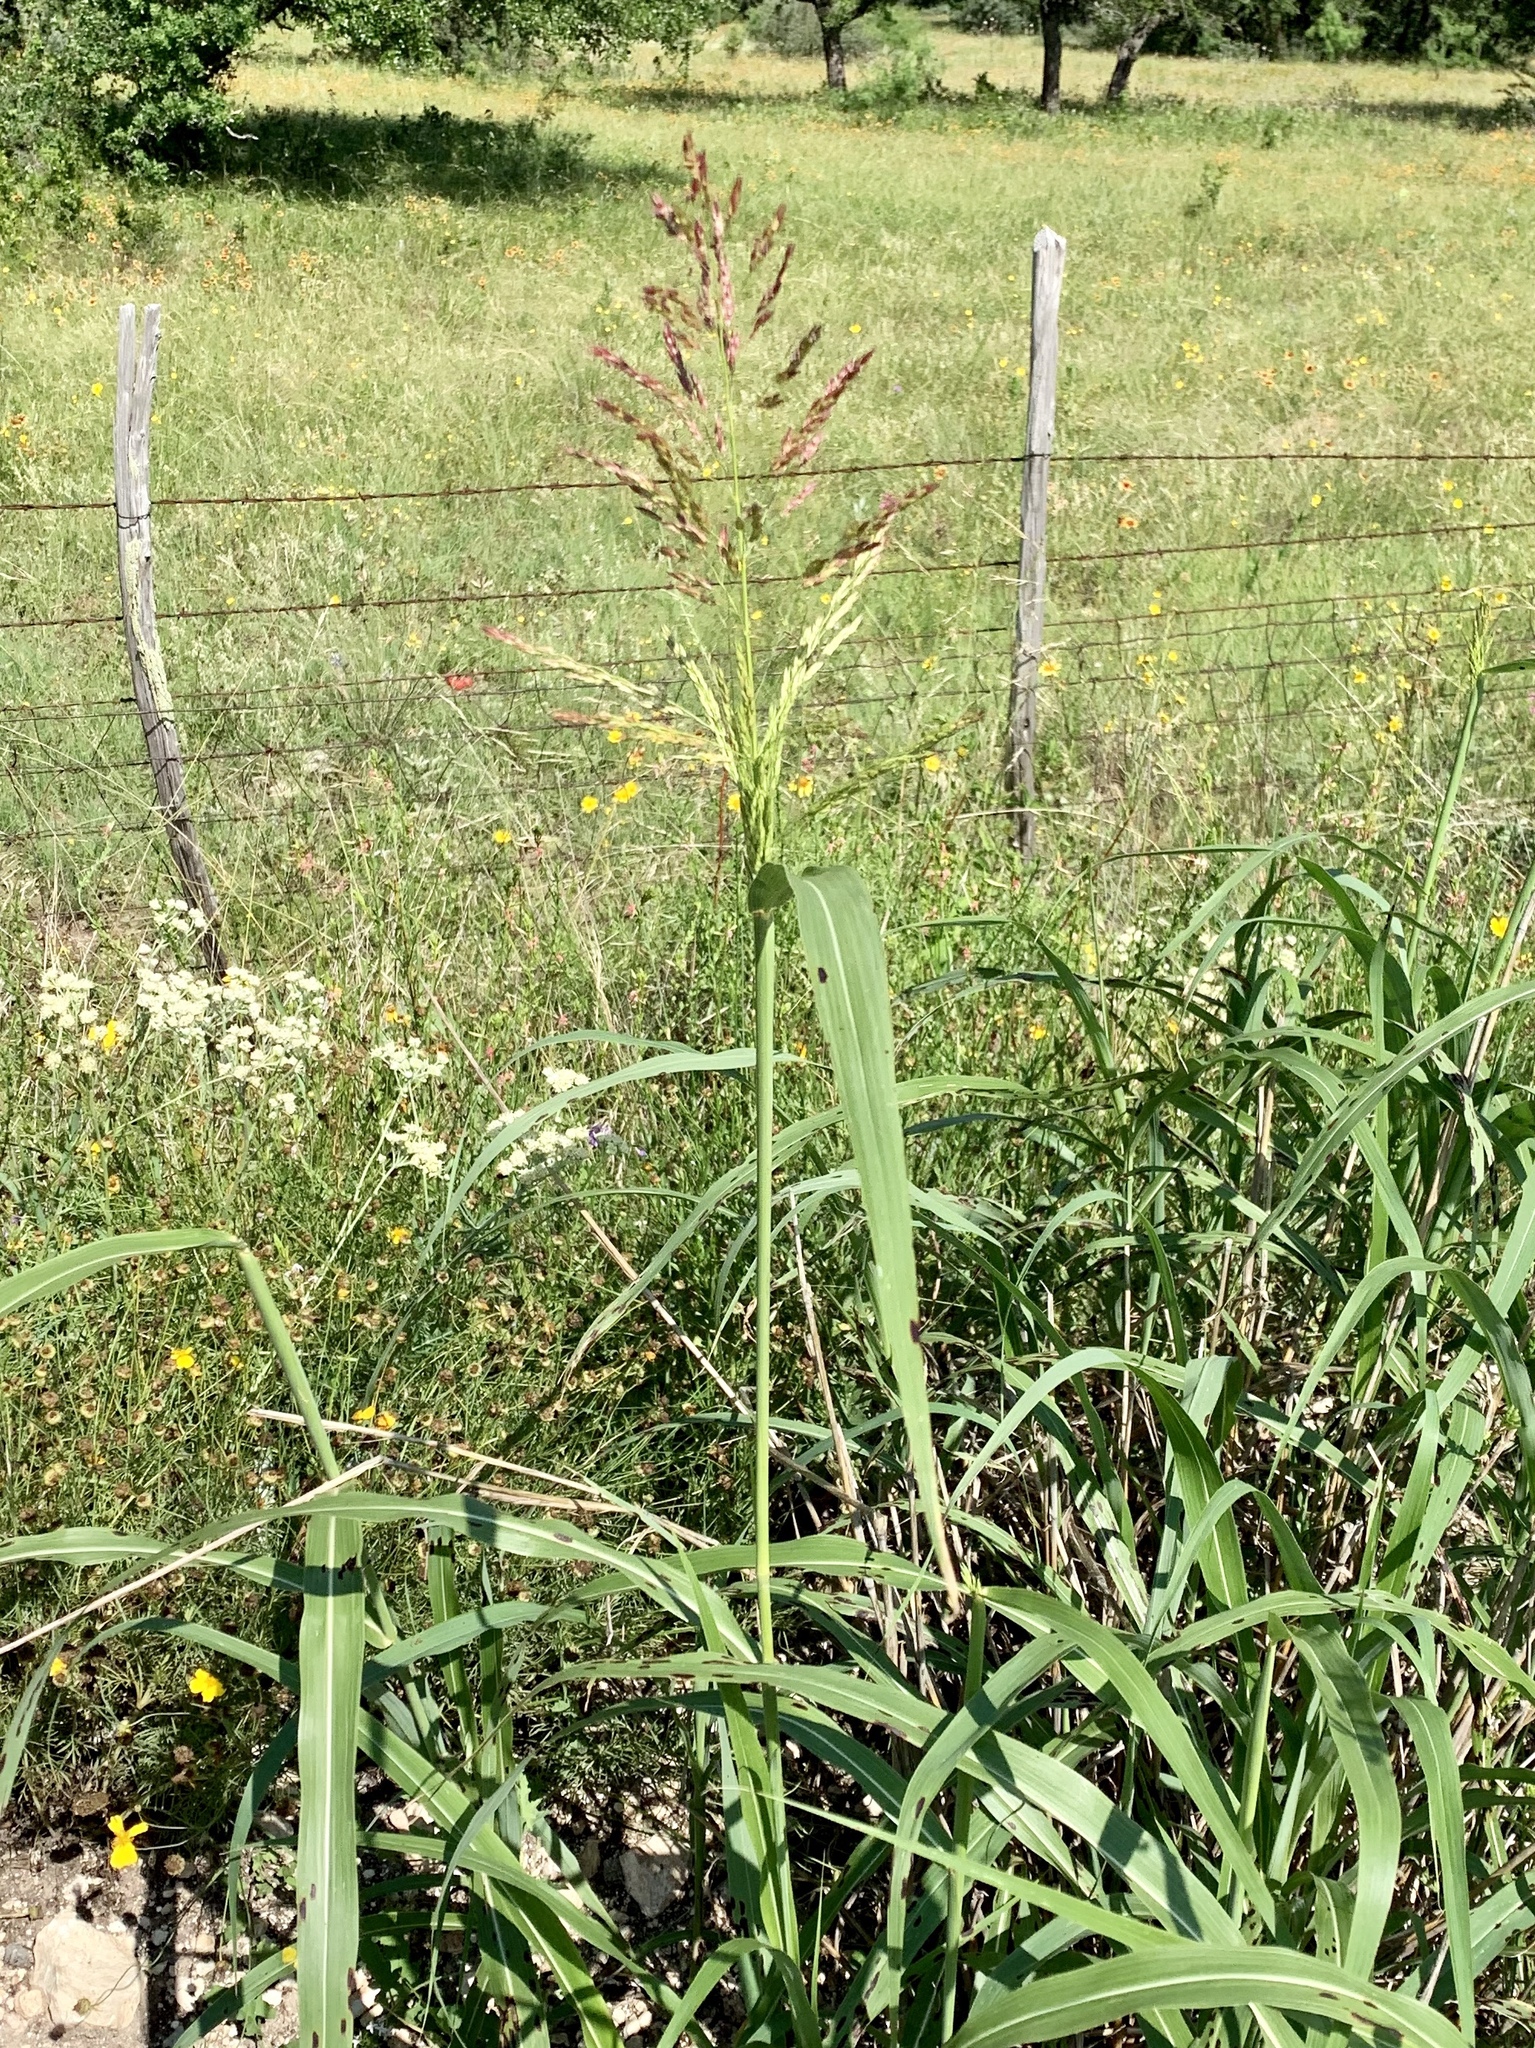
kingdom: Plantae
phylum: Tracheophyta
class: Liliopsida
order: Poales
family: Poaceae
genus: Sorghum
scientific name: Sorghum halepense
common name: Johnson-grass
